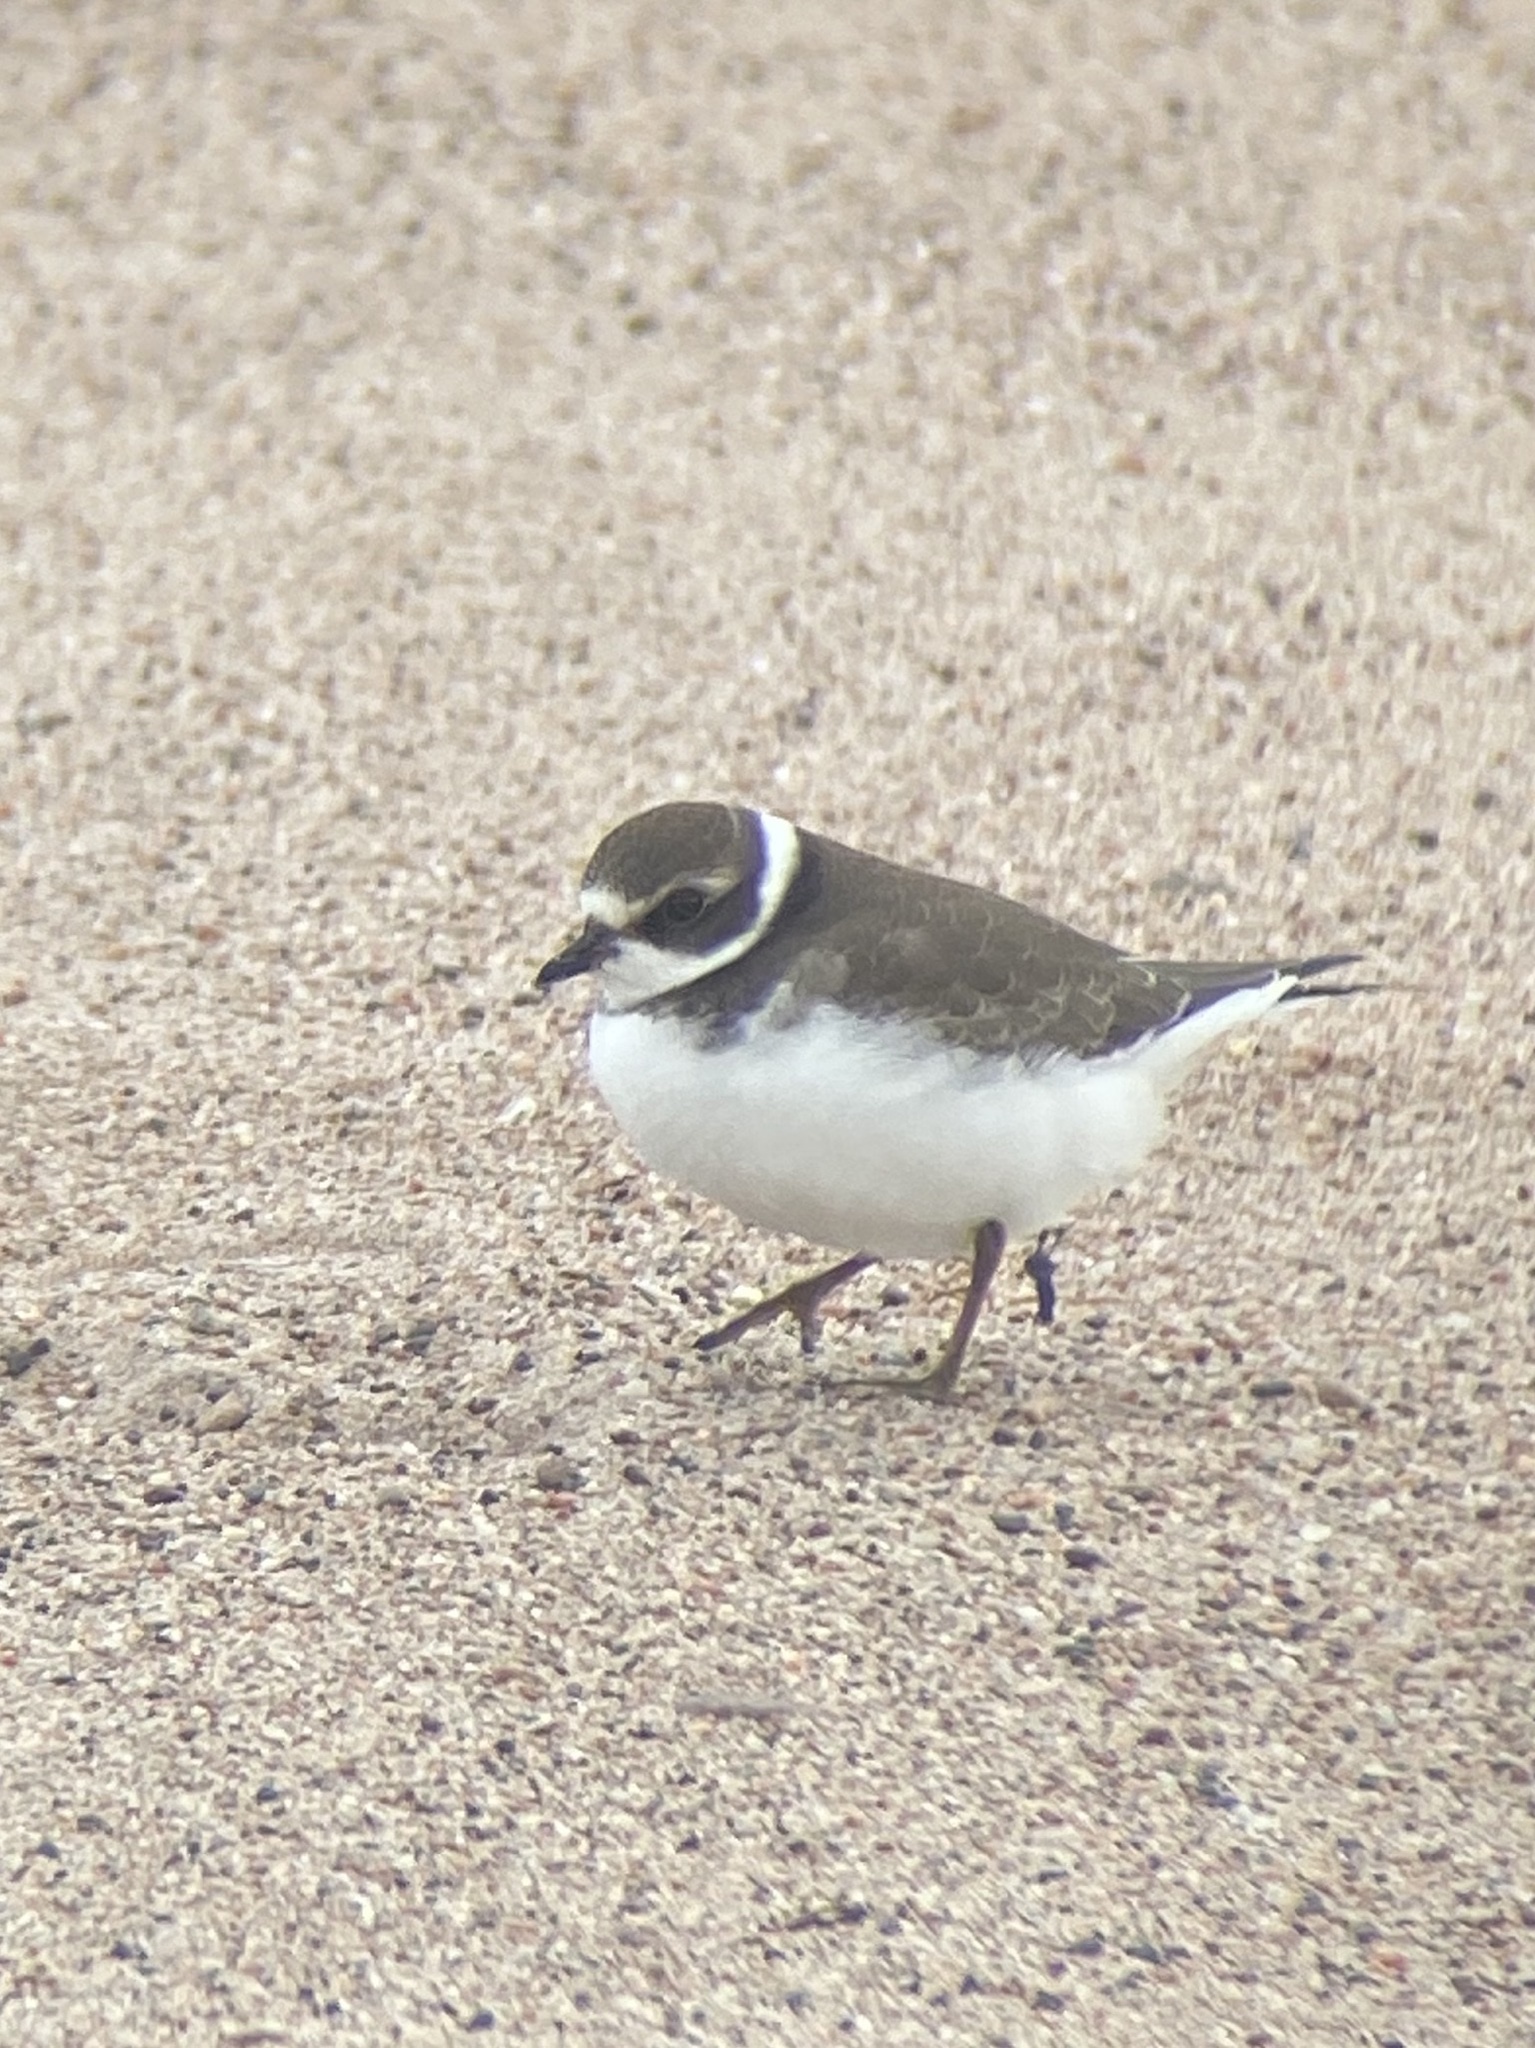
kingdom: Animalia
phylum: Chordata
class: Aves
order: Charadriiformes
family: Charadriidae
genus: Charadrius
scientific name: Charadrius semipalmatus
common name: Semipalmated plover
